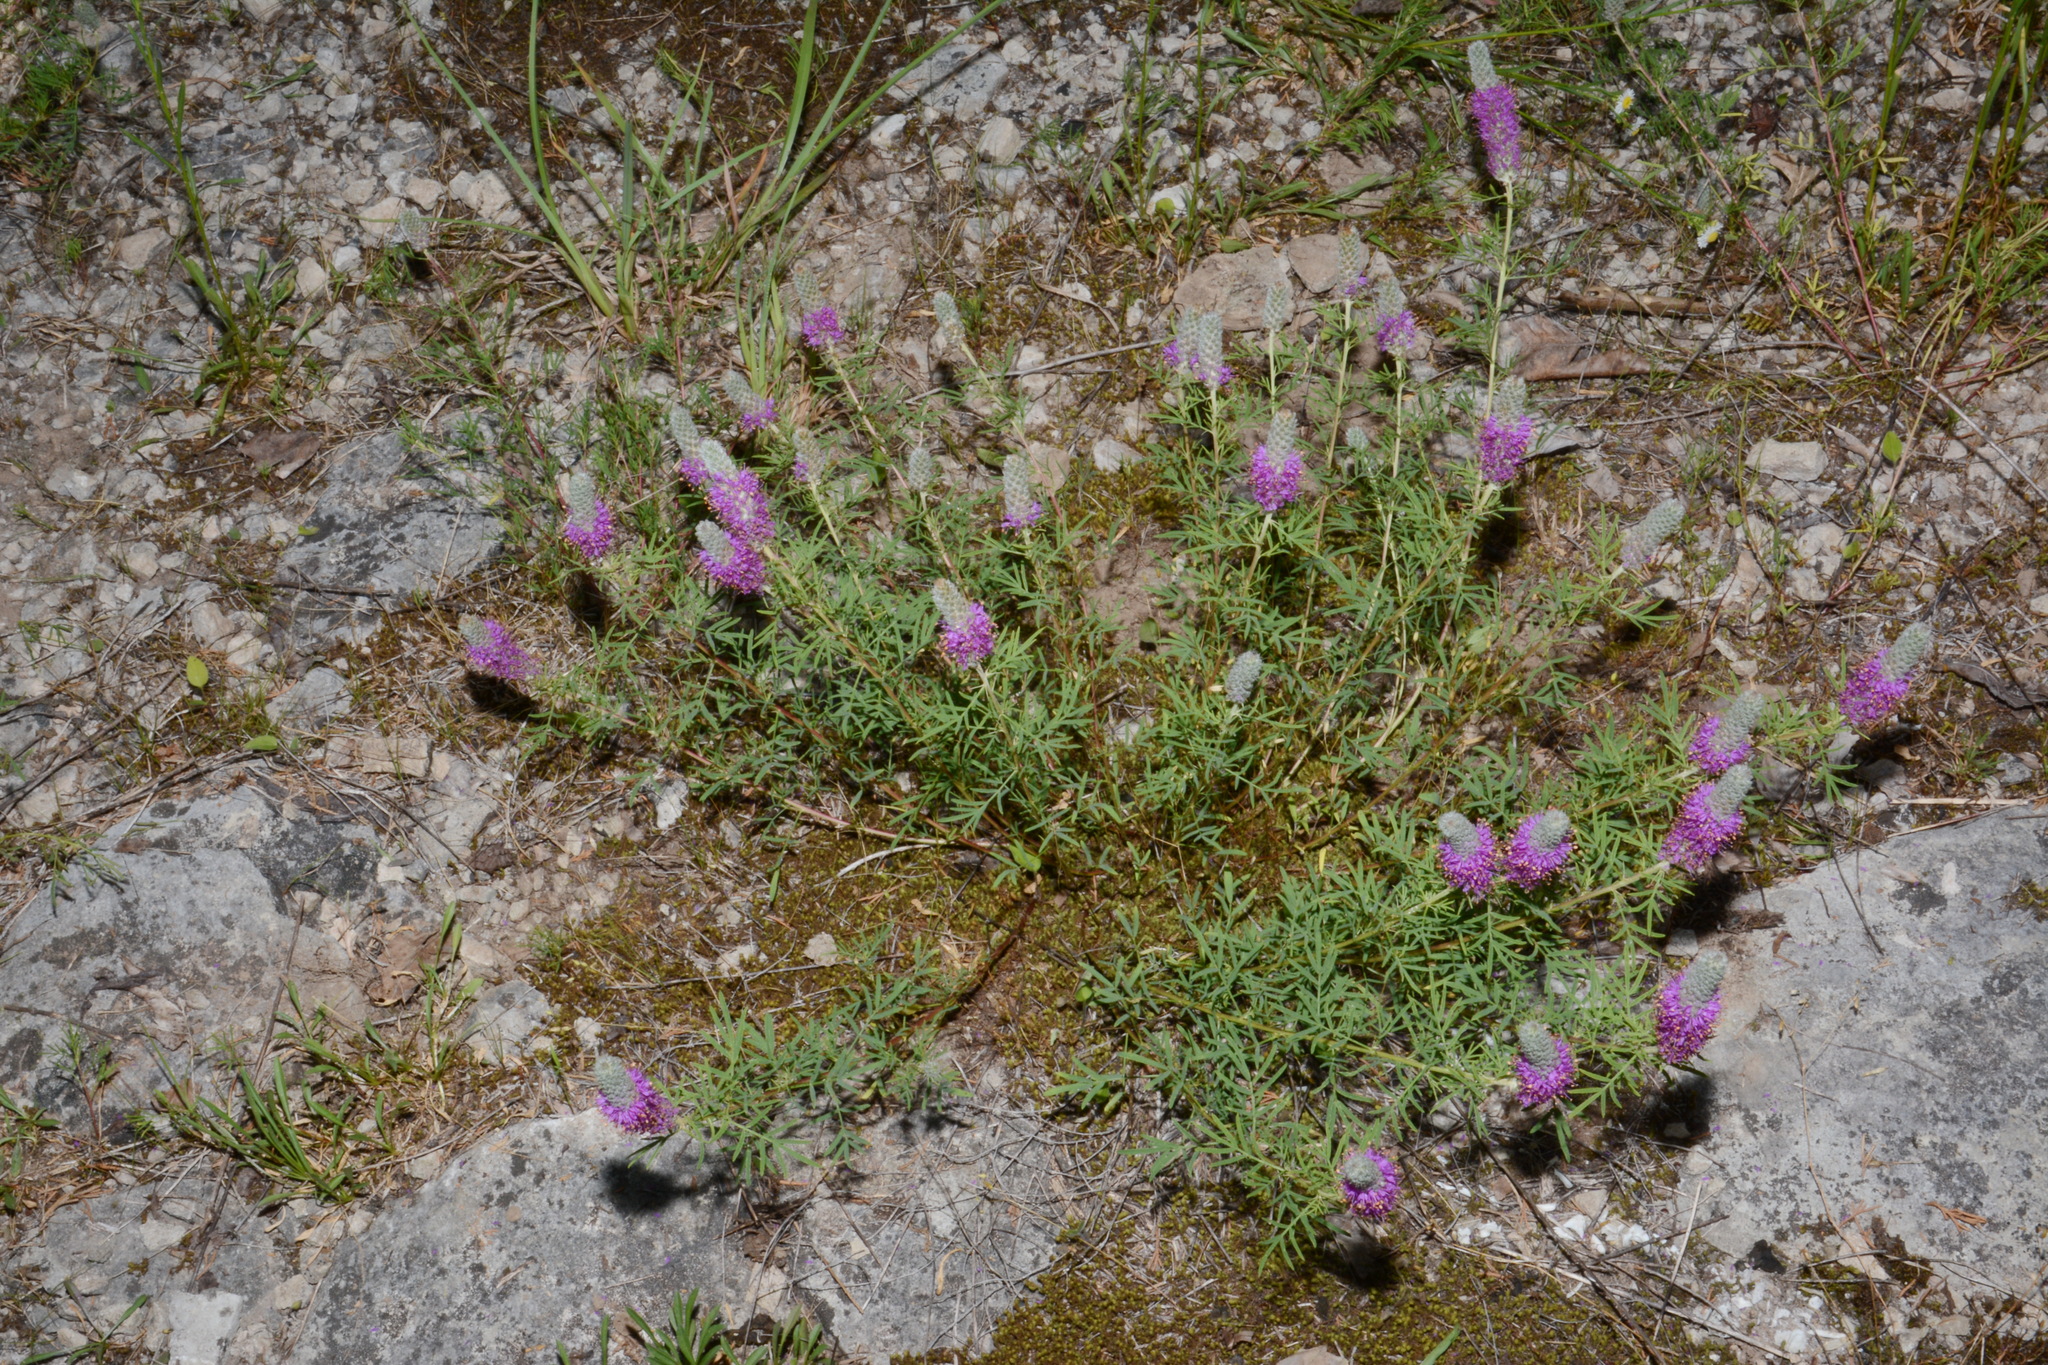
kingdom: Plantae
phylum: Tracheophyta
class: Magnoliopsida
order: Fabales
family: Fabaceae
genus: Dalea
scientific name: Dalea gattingeri
